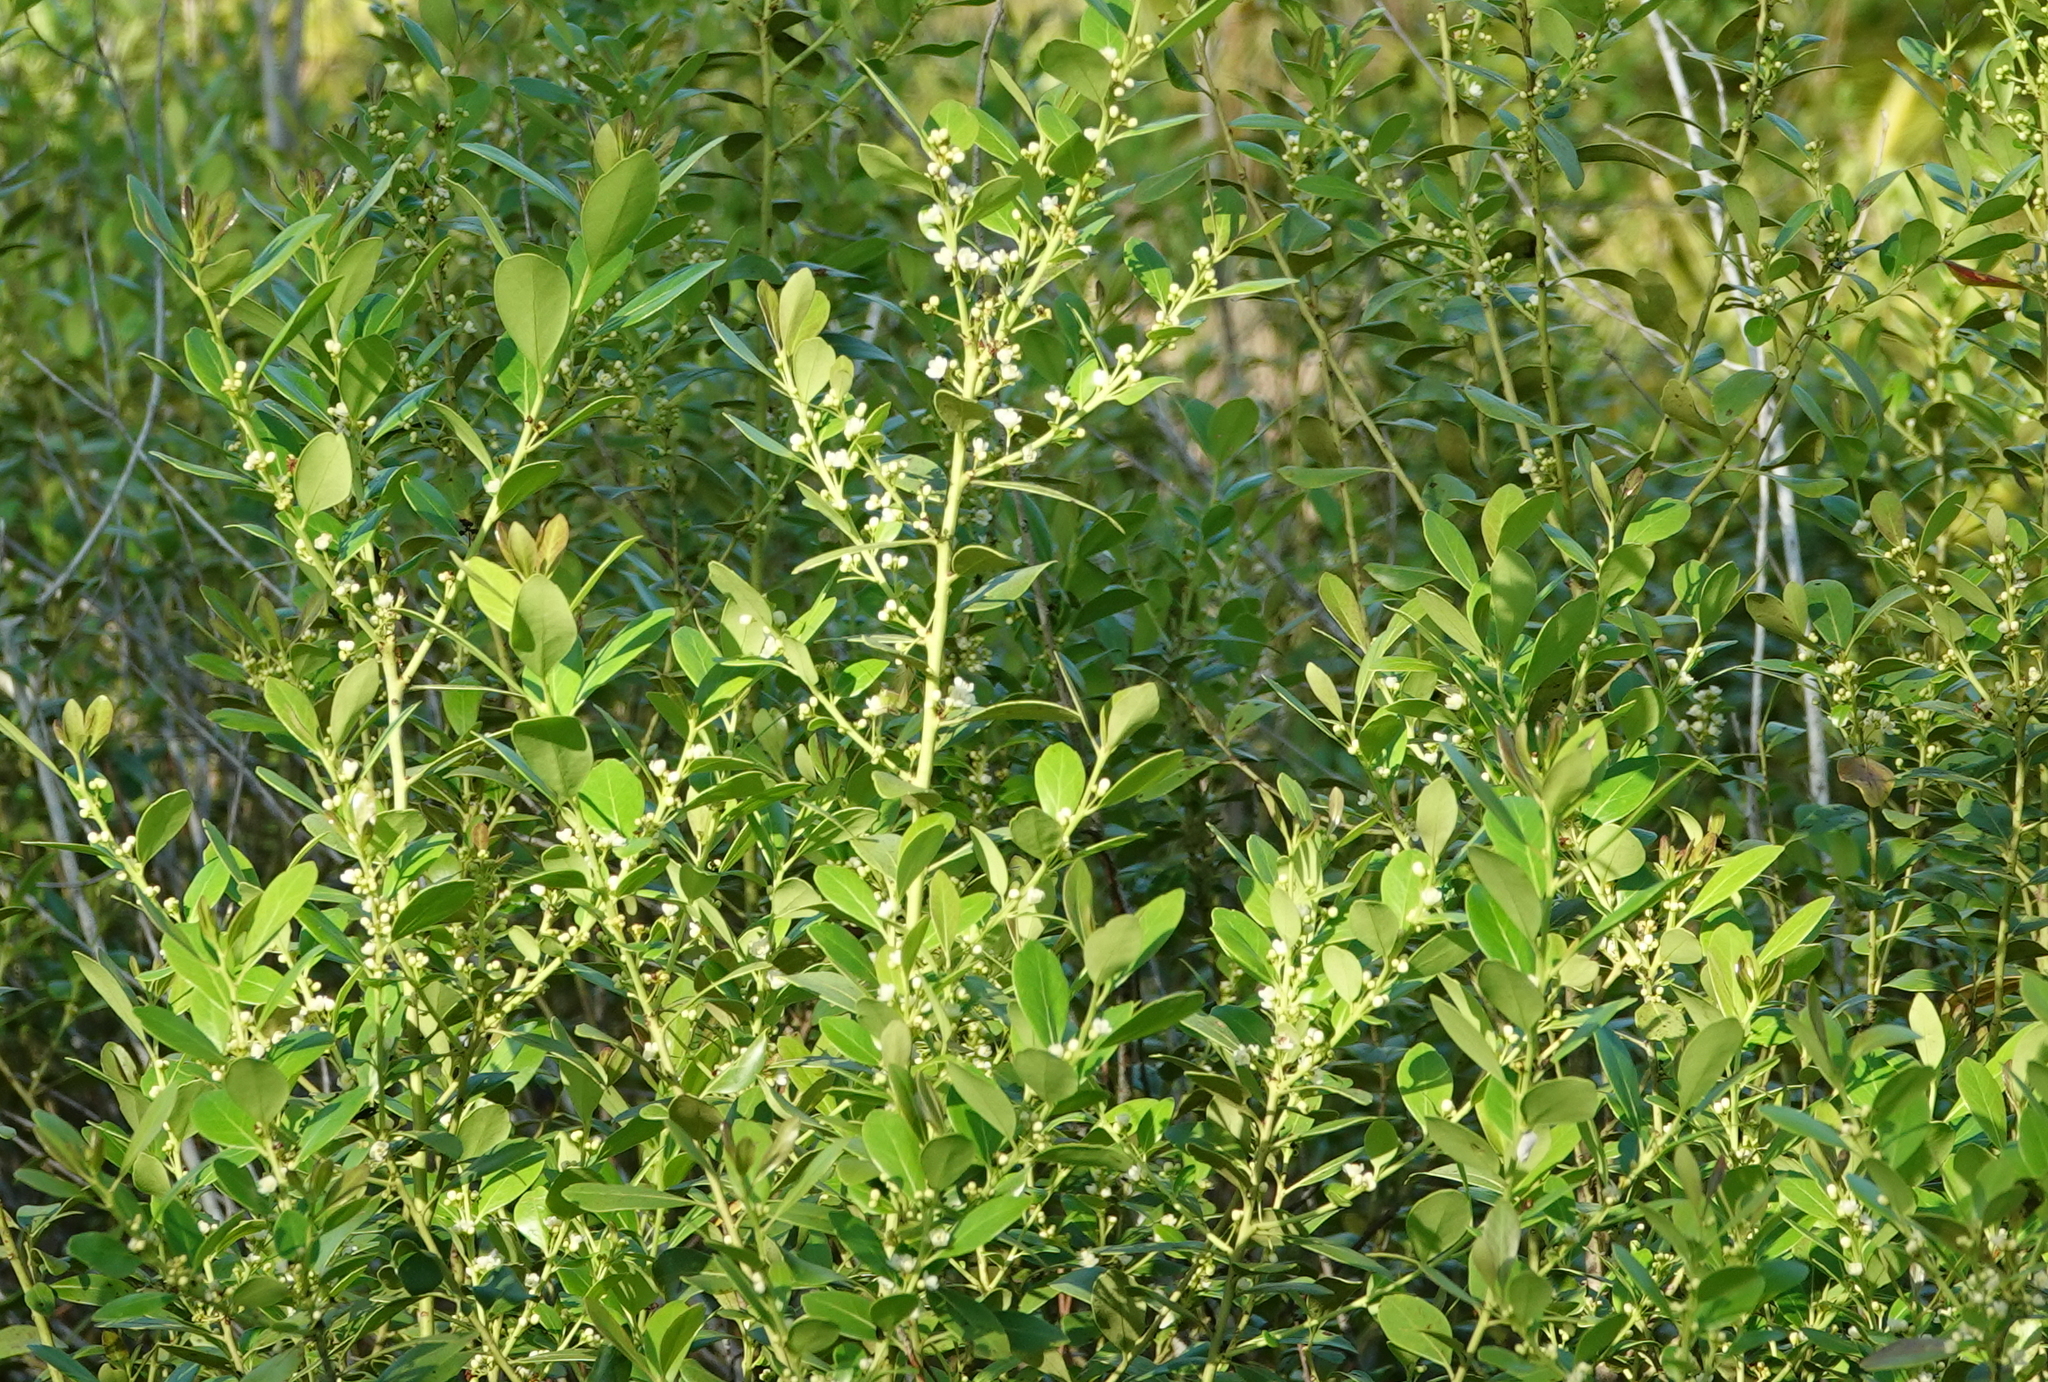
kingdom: Plantae
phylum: Tracheophyta
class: Magnoliopsida
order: Aquifoliales
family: Aquifoliaceae
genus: Ilex
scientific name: Ilex glabra
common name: Bitter gallberry
